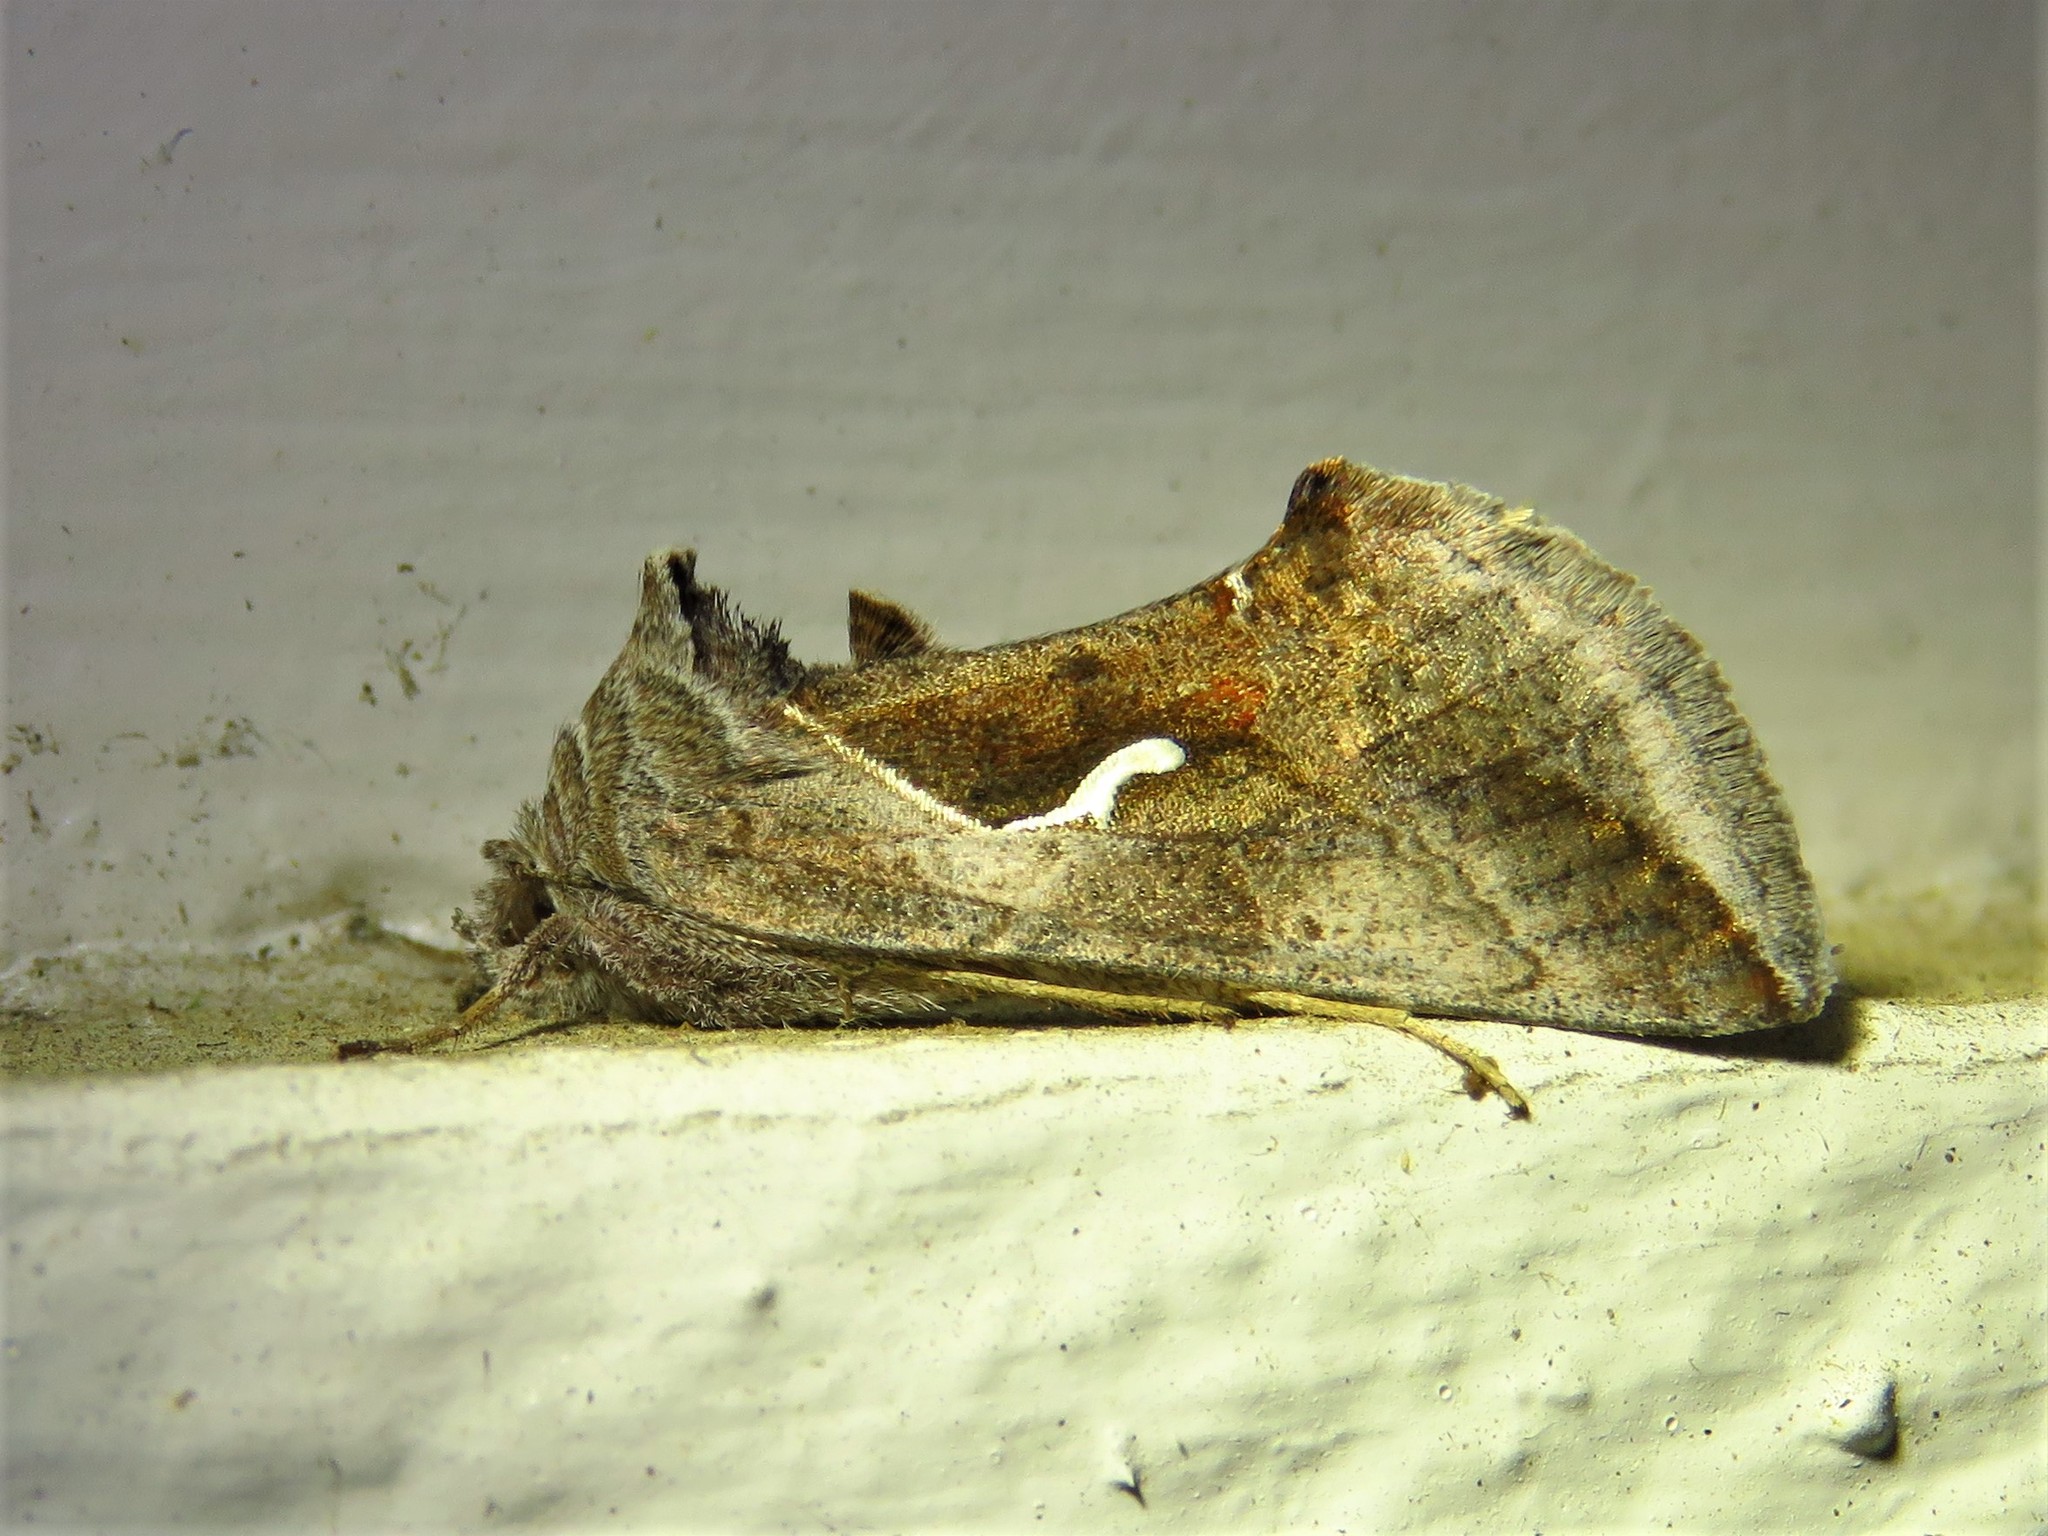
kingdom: Animalia
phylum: Arthropoda
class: Insecta
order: Lepidoptera
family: Noctuidae
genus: Anagrapha
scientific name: Anagrapha falcifera
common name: Celery looper
